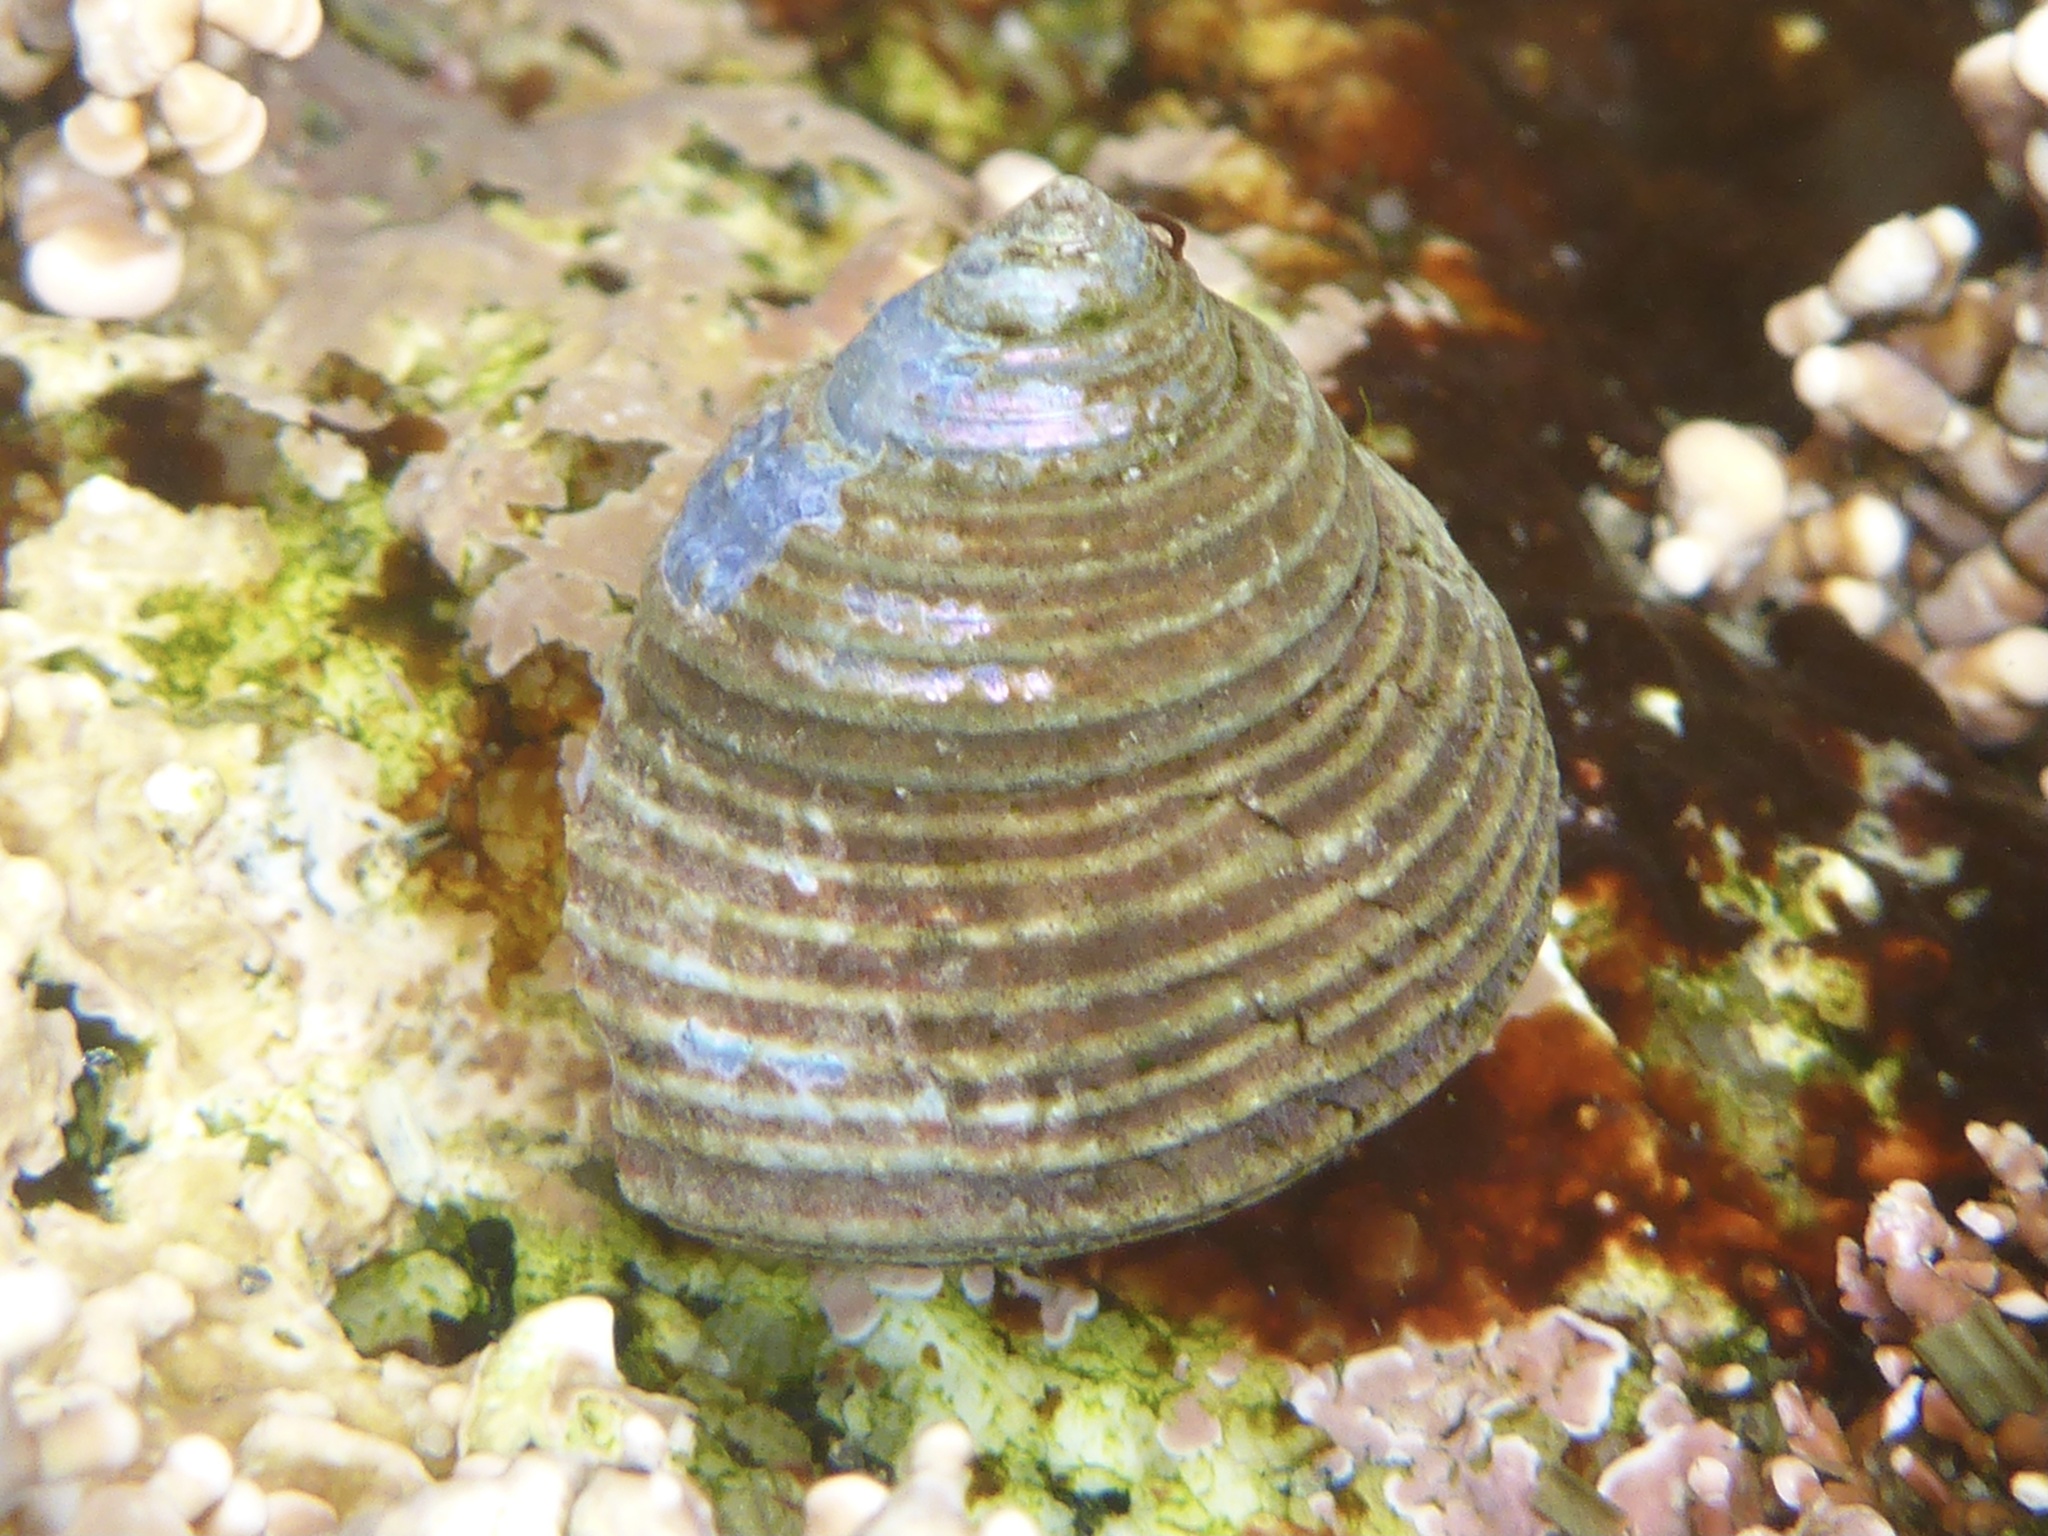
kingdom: Animalia
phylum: Mollusca
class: Gastropoda
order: Trochida
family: Calliostomatidae
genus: Calliostoma
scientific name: Calliostoma ligatum
